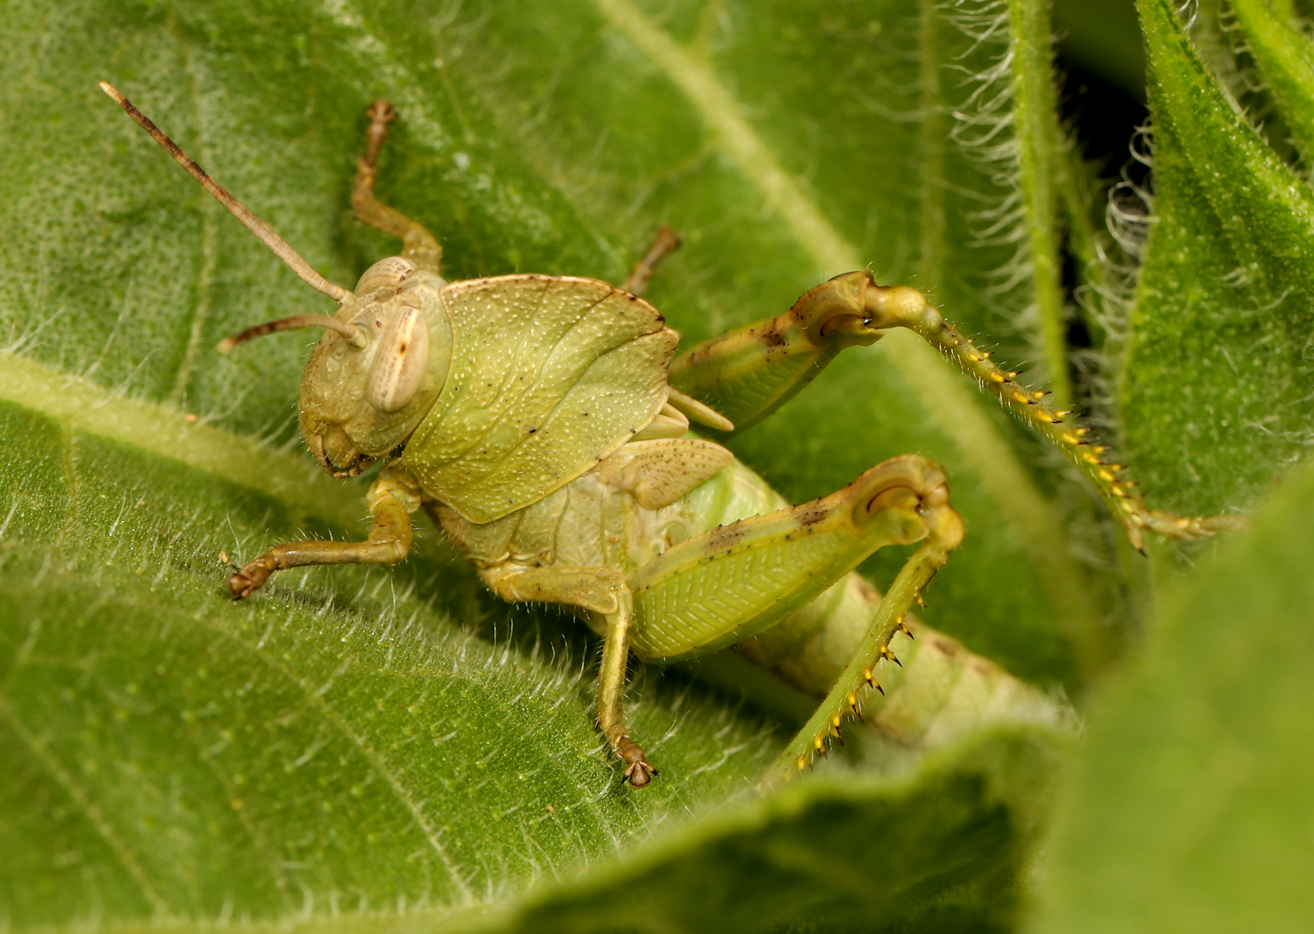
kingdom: Animalia
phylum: Arthropoda
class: Insecta
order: Orthoptera
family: Acrididae
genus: Abisares
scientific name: Abisares viridipenne
